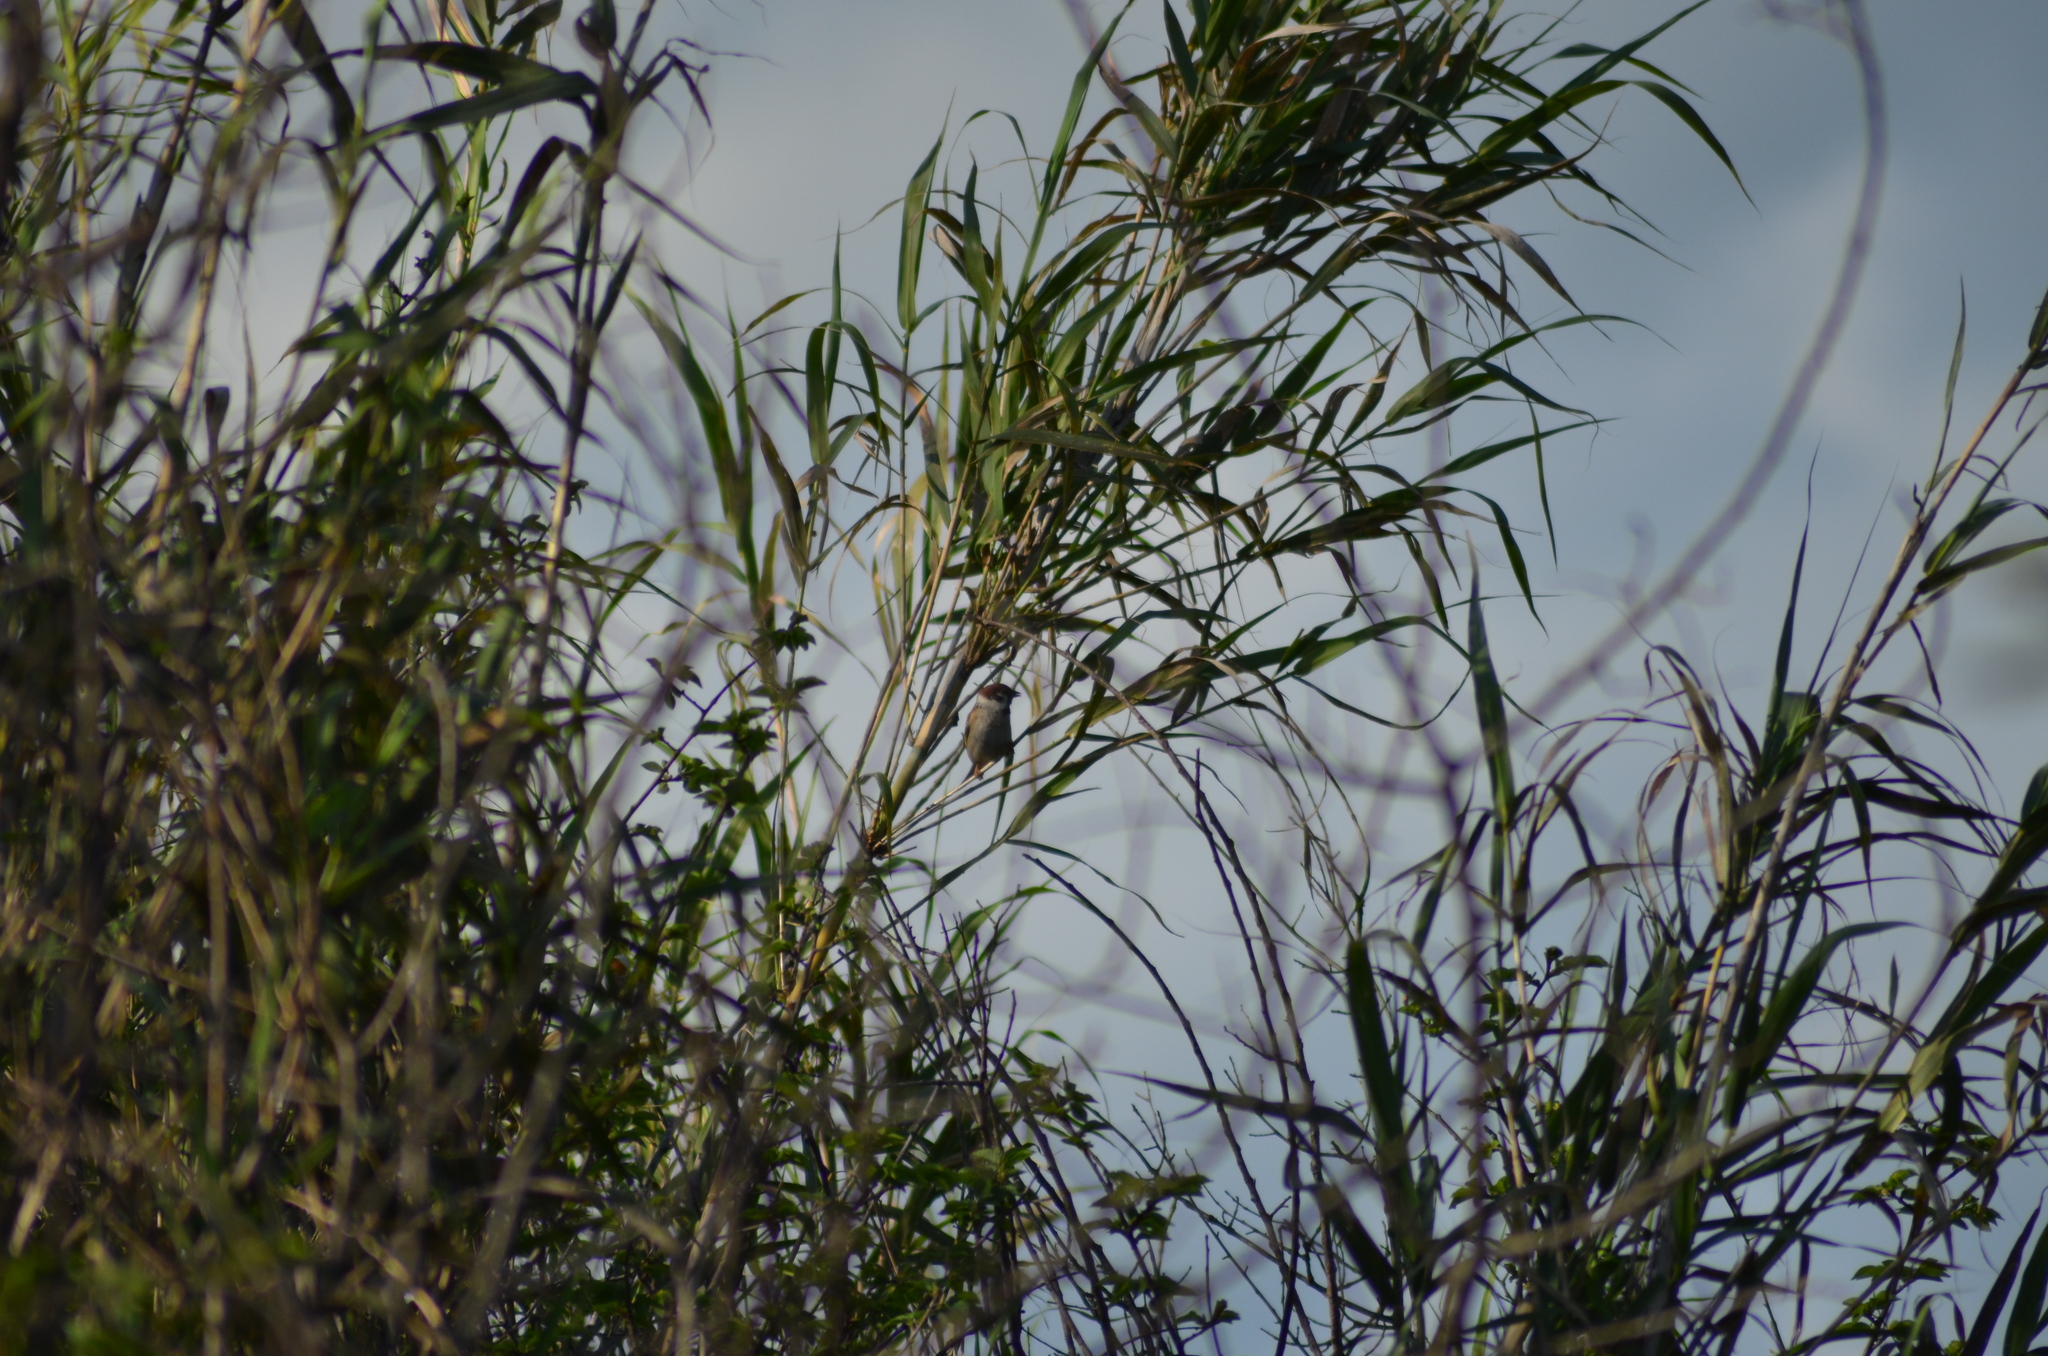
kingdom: Animalia
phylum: Chordata
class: Aves
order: Passeriformes
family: Passeridae
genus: Passer
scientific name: Passer montanus
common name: Eurasian tree sparrow
